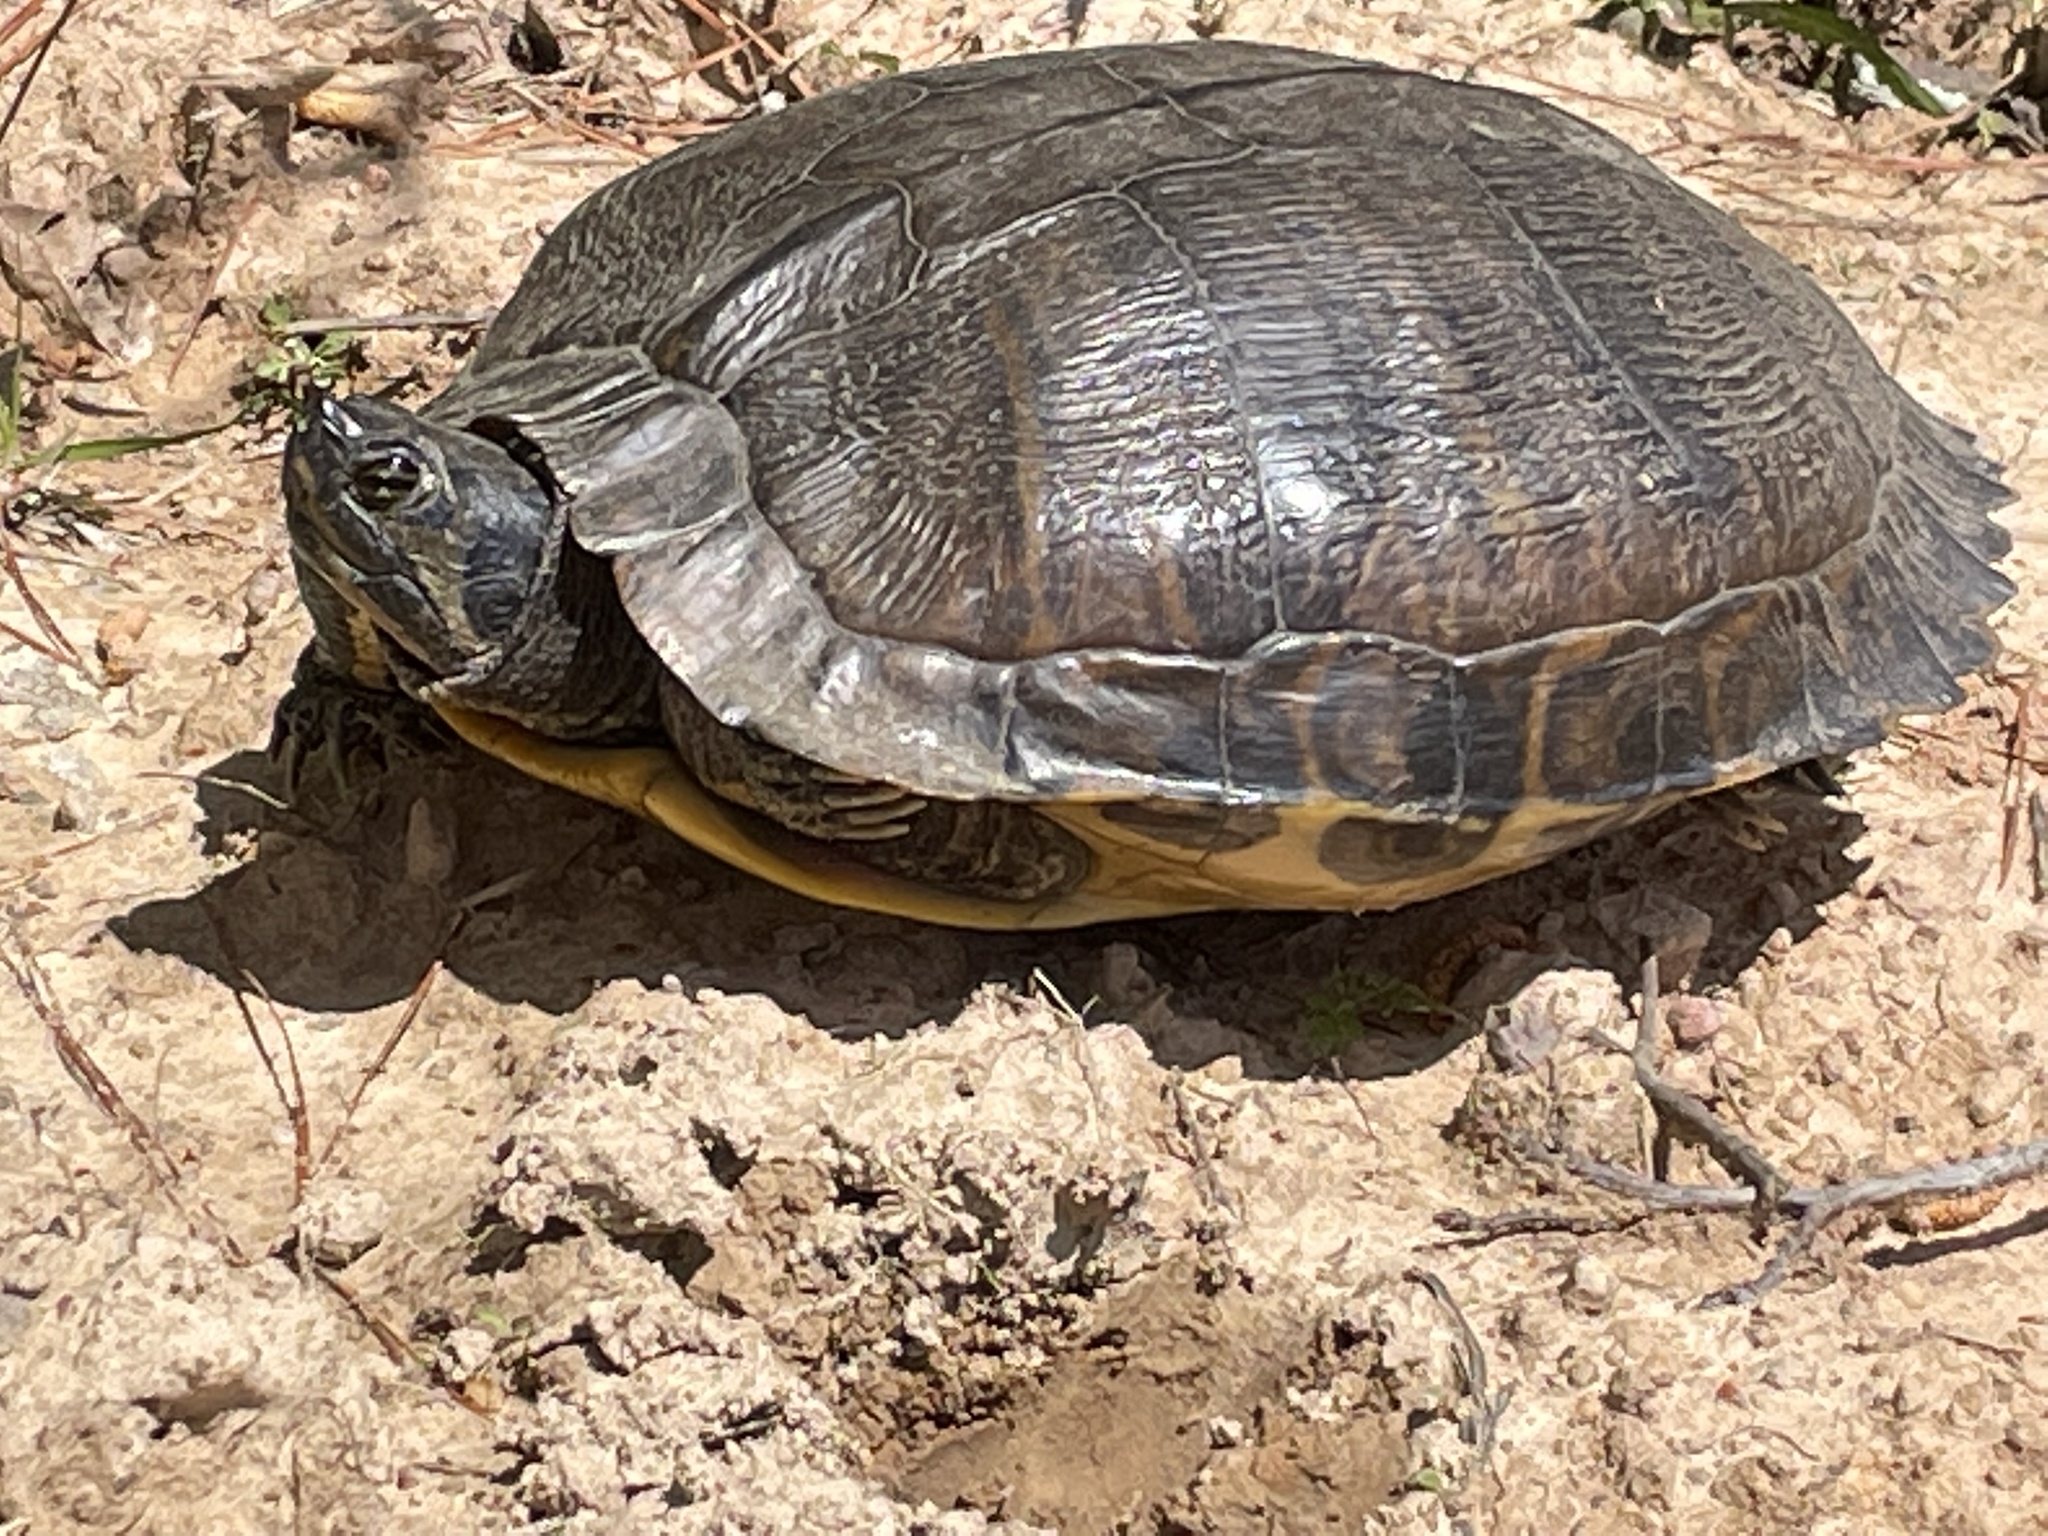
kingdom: Animalia
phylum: Chordata
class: Testudines
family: Emydidae
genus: Trachemys
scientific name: Trachemys scripta
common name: Slider
